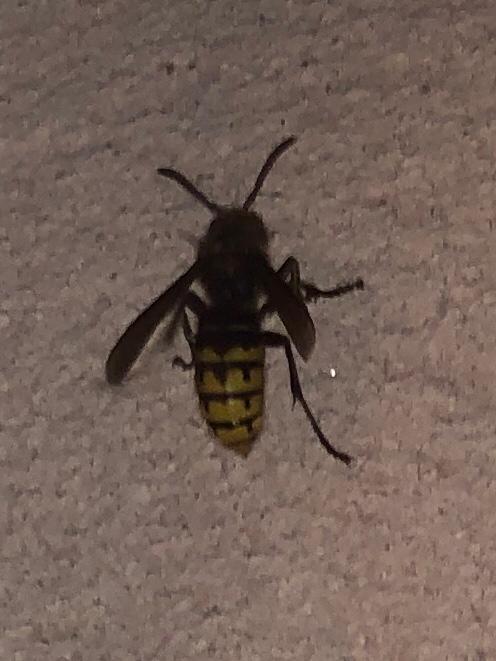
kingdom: Animalia
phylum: Arthropoda
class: Insecta
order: Hymenoptera
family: Vespidae
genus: Vespa
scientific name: Vespa crabro
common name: Hornet
